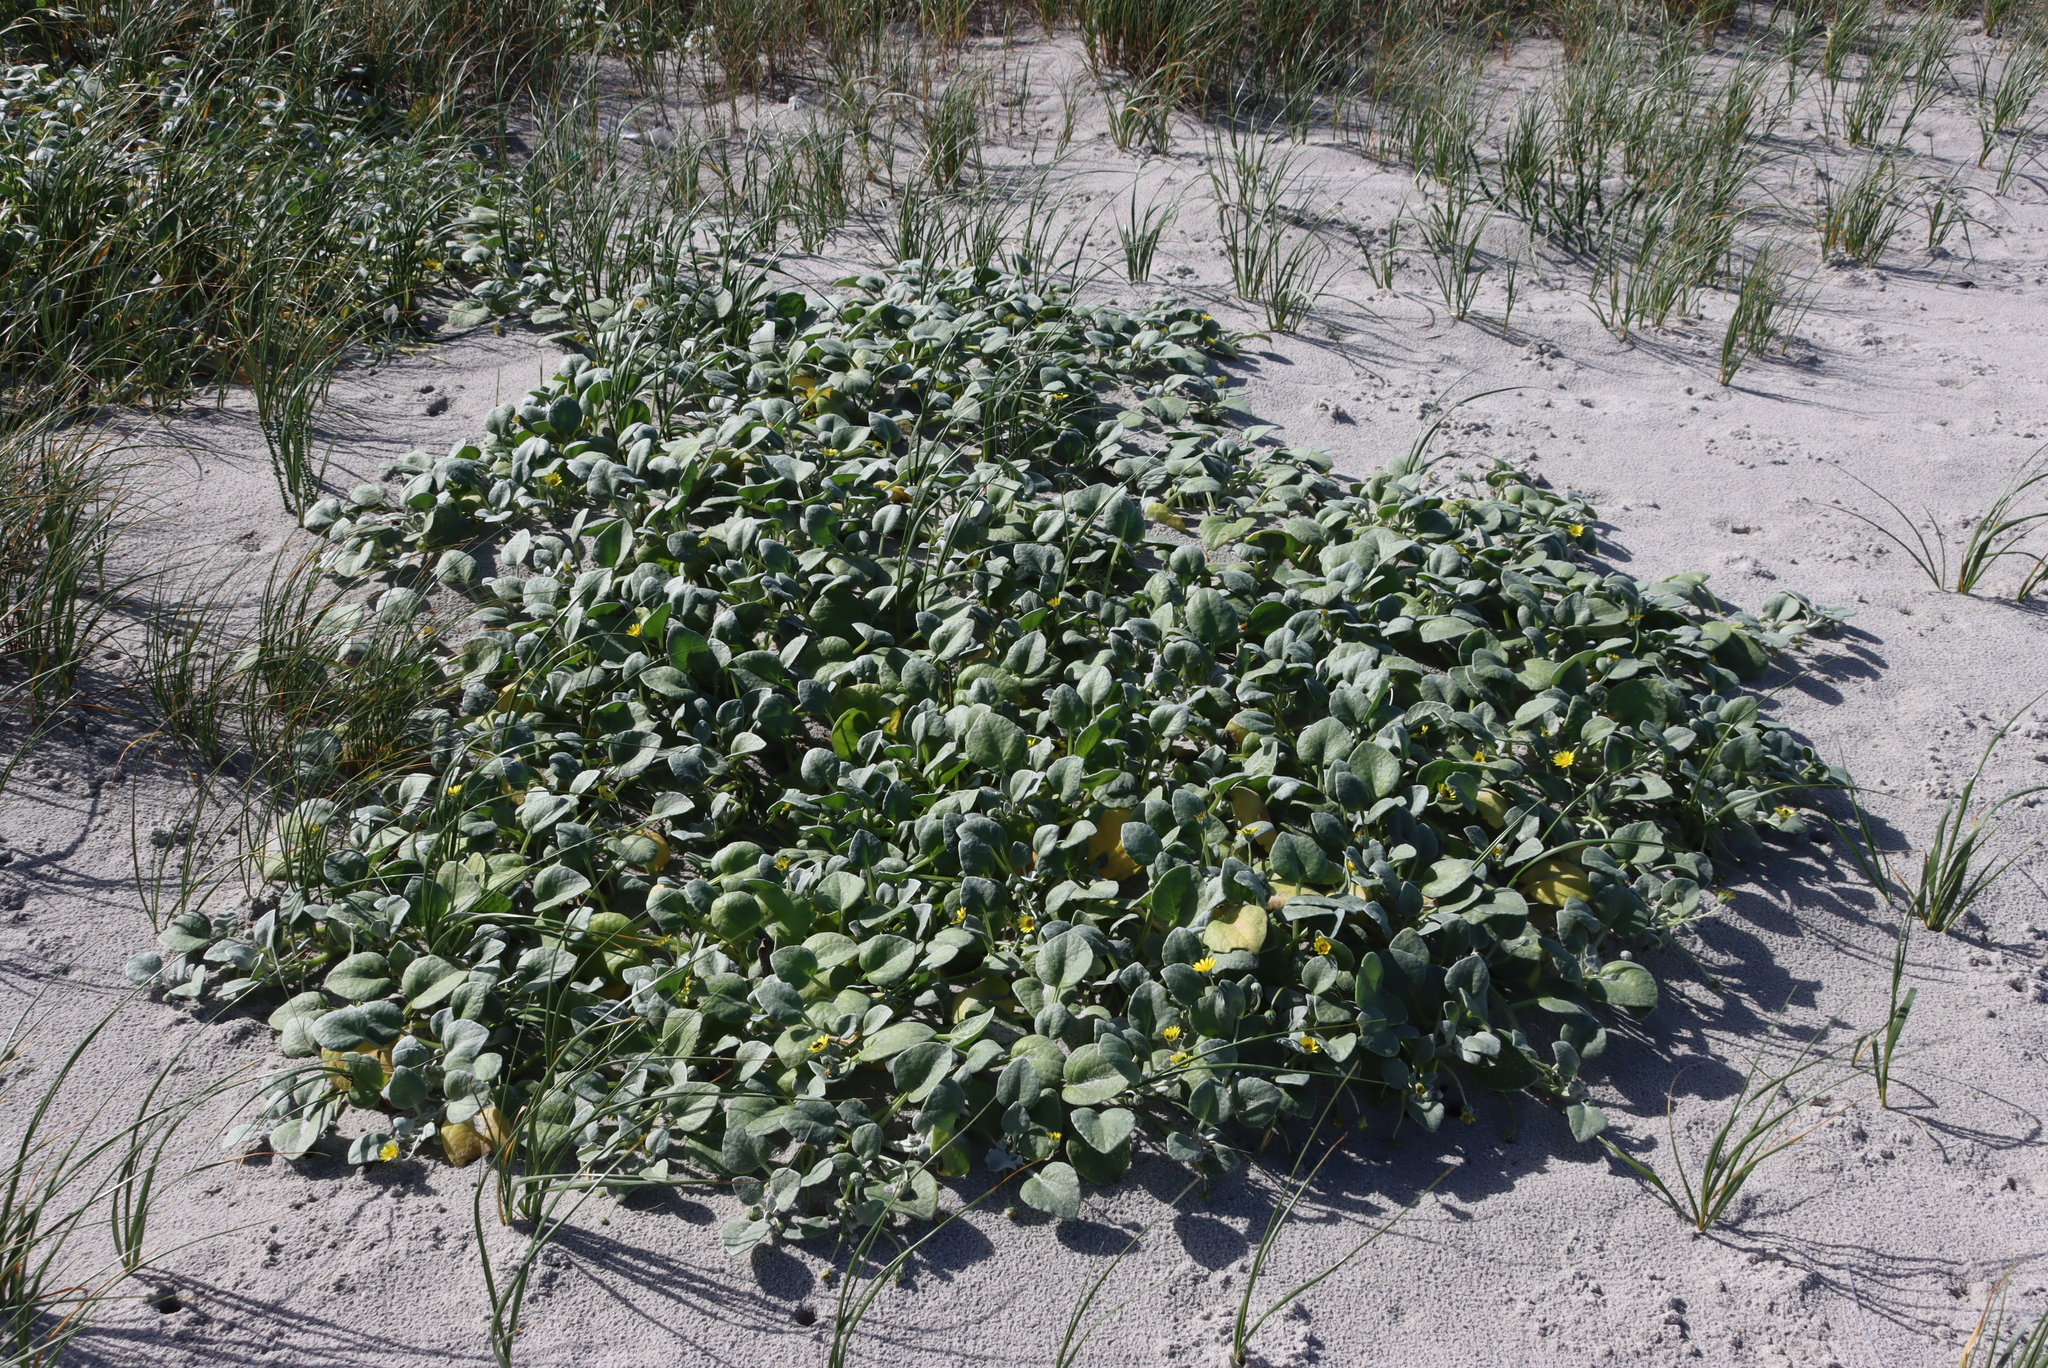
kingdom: Plantae
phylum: Tracheophyta
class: Magnoliopsida
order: Asterales
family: Asteraceae
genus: Arctotheca
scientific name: Arctotheca populifolia
